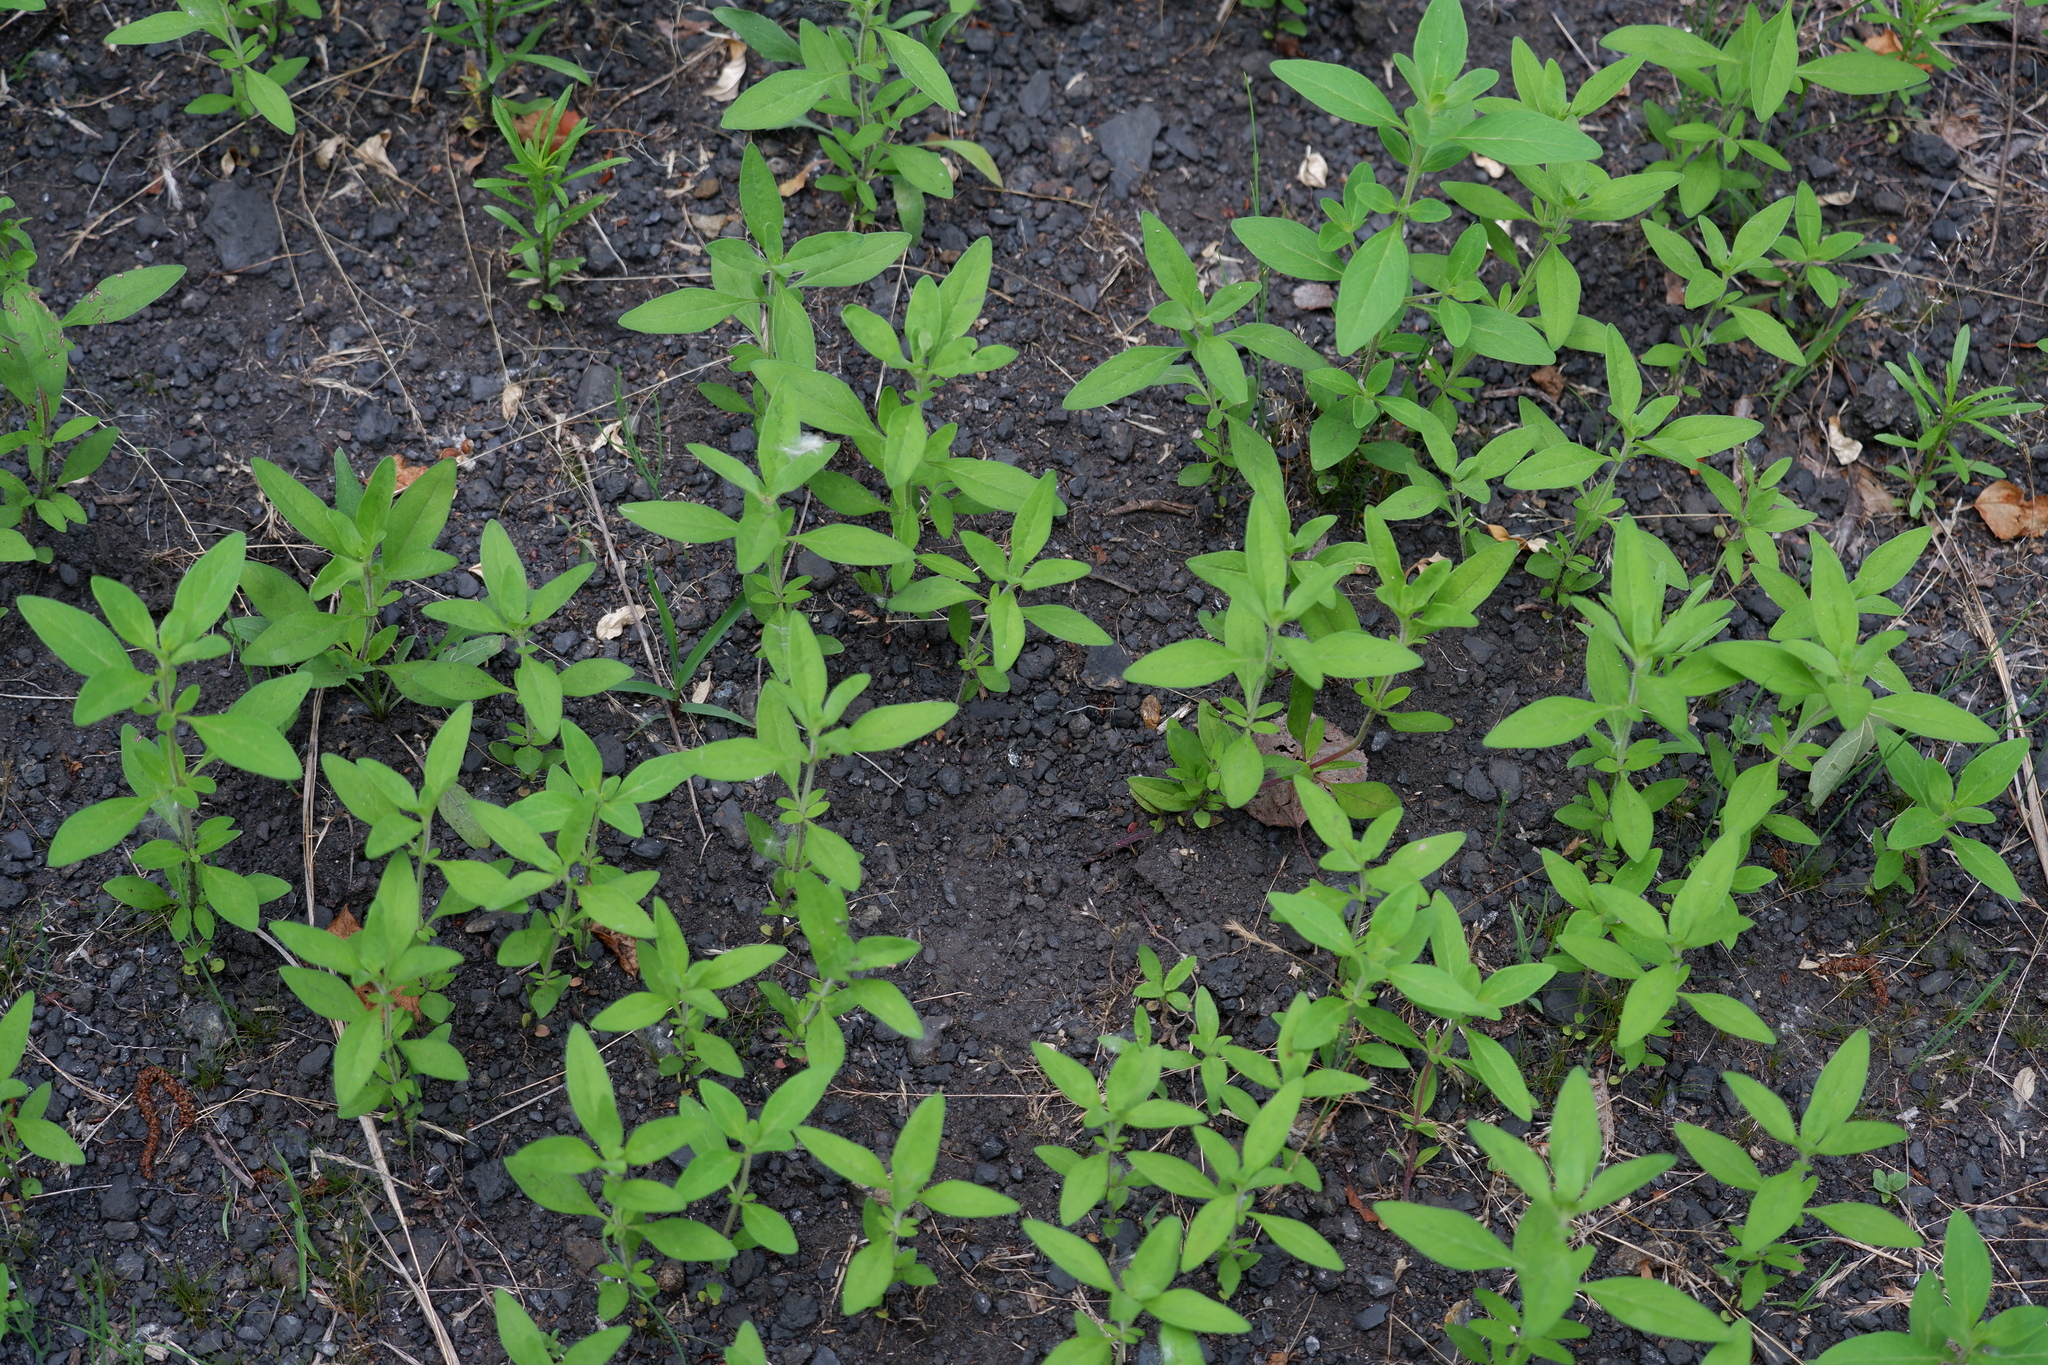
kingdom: Plantae
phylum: Tracheophyta
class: Magnoliopsida
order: Lamiales
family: Lamiaceae
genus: Trichostema
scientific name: Trichostema dichotomum
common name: Bastard pennyroyal
